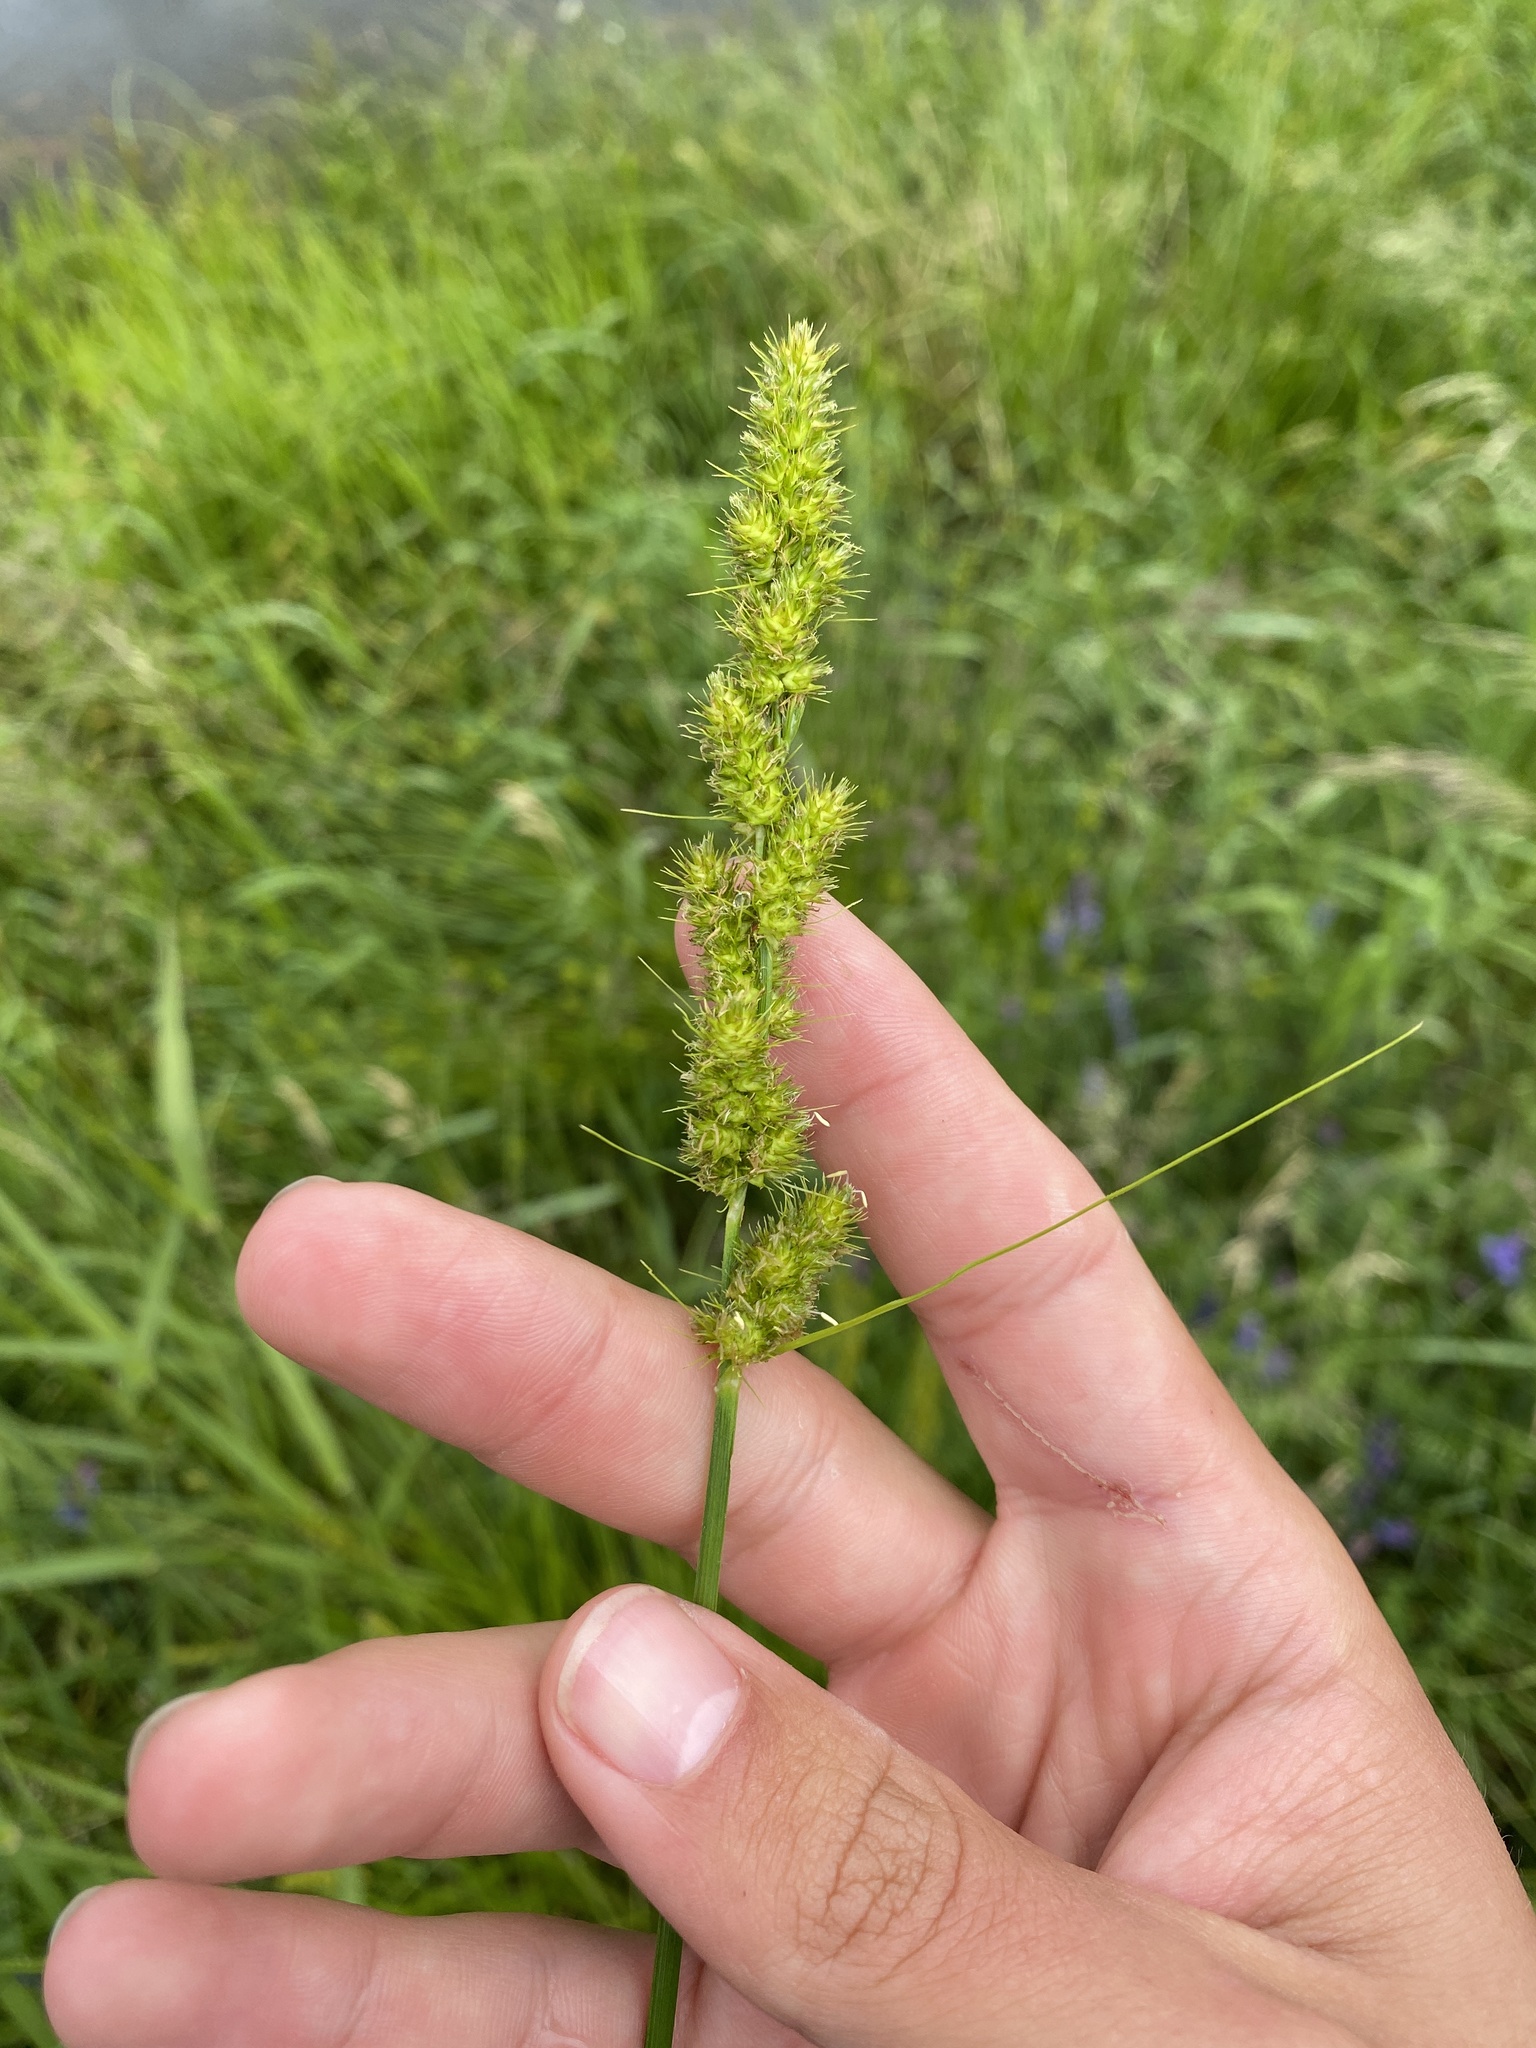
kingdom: Plantae
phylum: Tracheophyta
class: Liliopsida
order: Poales
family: Cyperaceae
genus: Carex
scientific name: Carex vulpinoidea
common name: American fox-sedge
